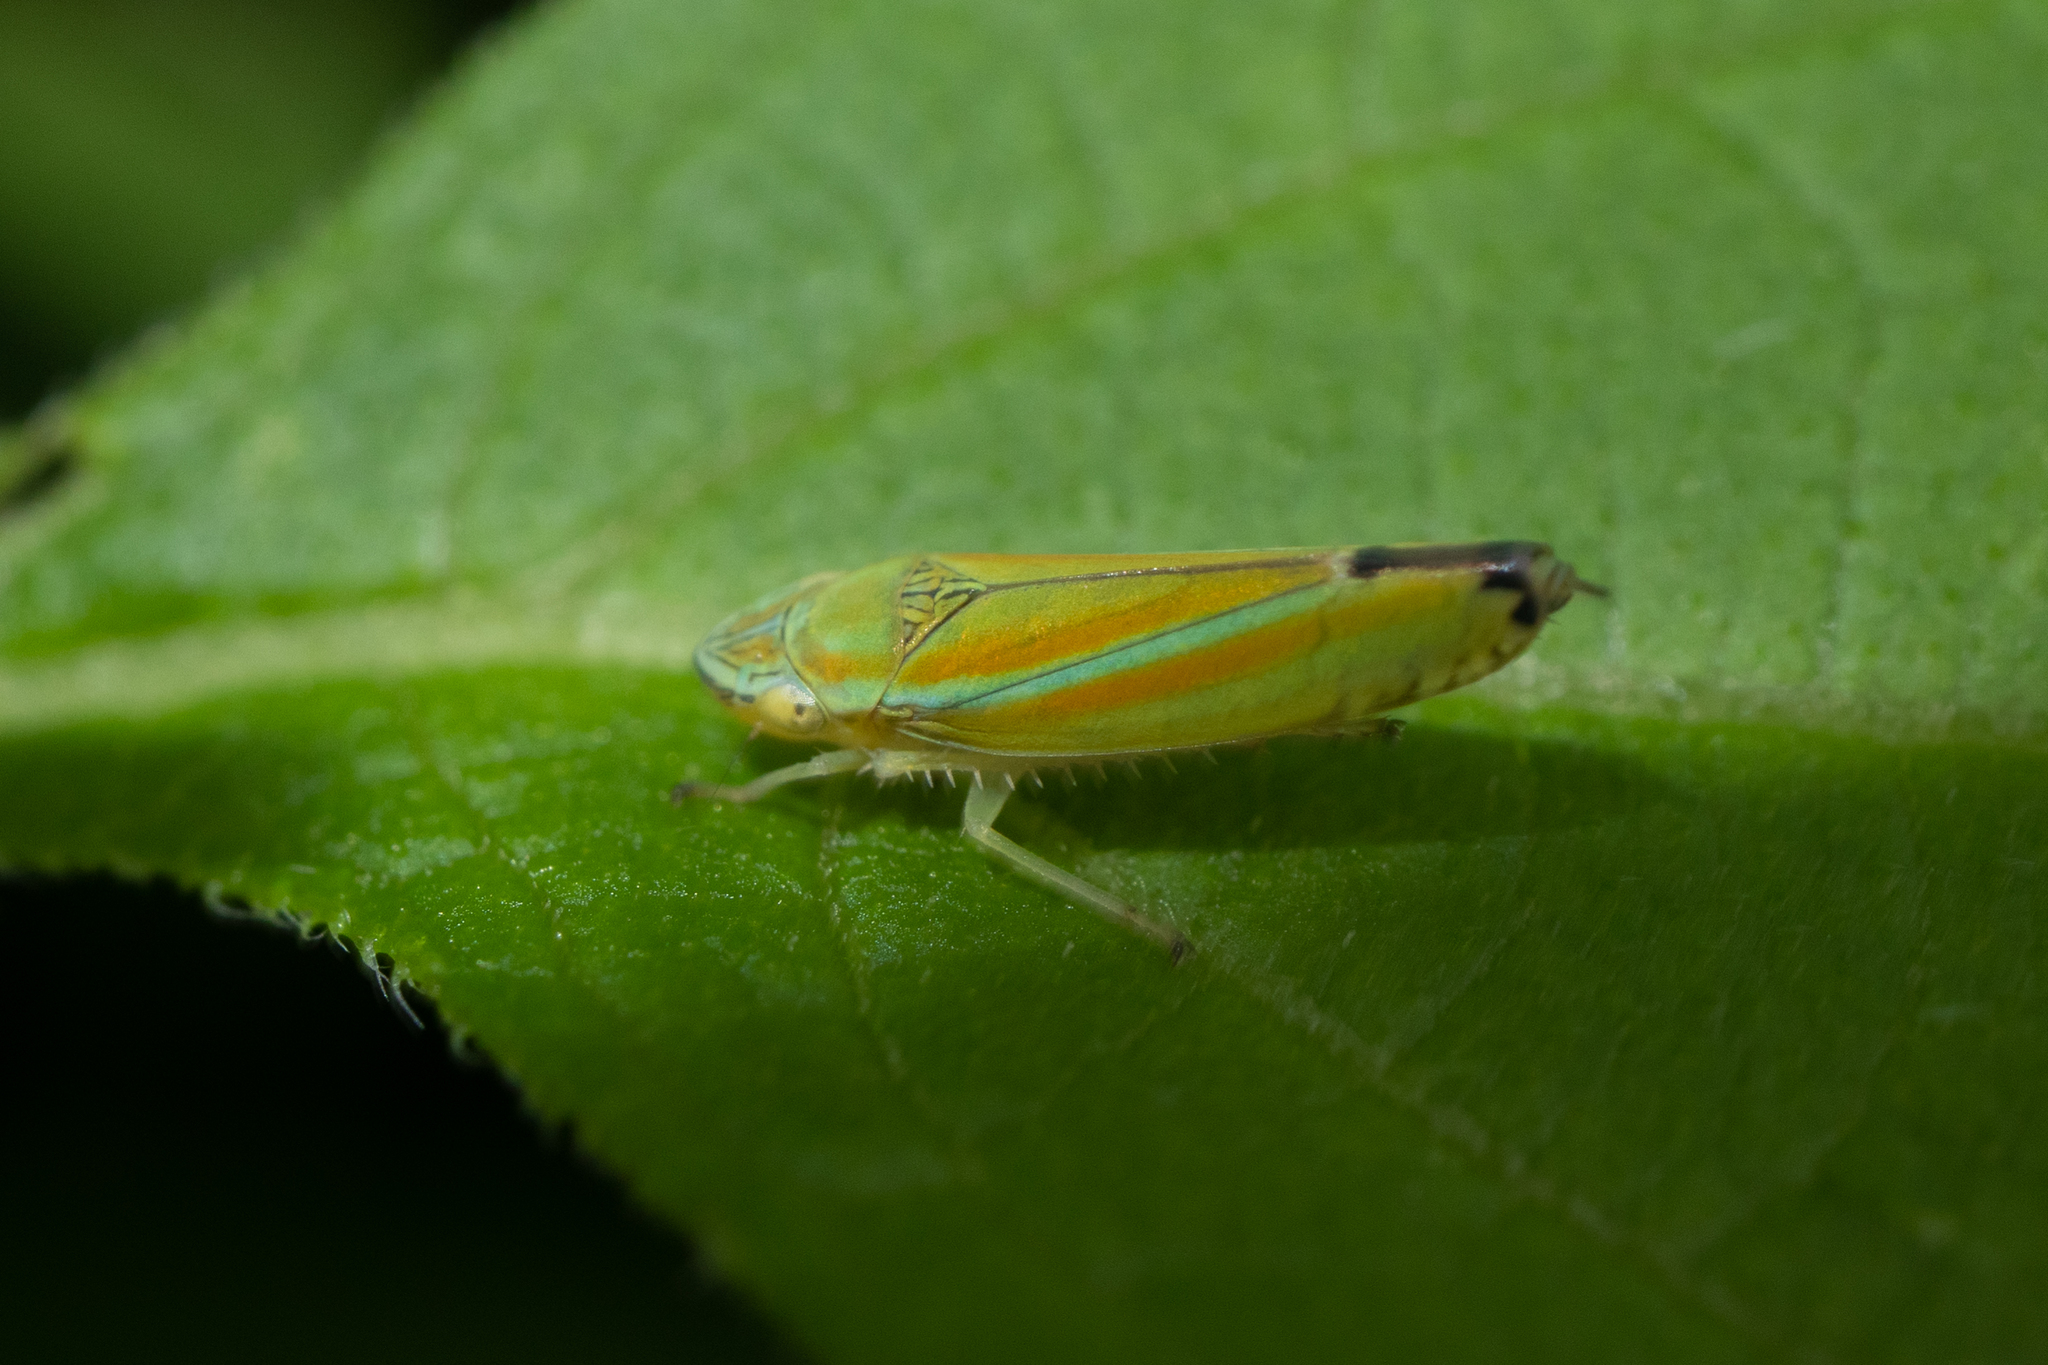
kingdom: Animalia
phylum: Arthropoda
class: Insecta
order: Hemiptera
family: Cicadellidae
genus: Graphocephala
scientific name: Graphocephala versuta
